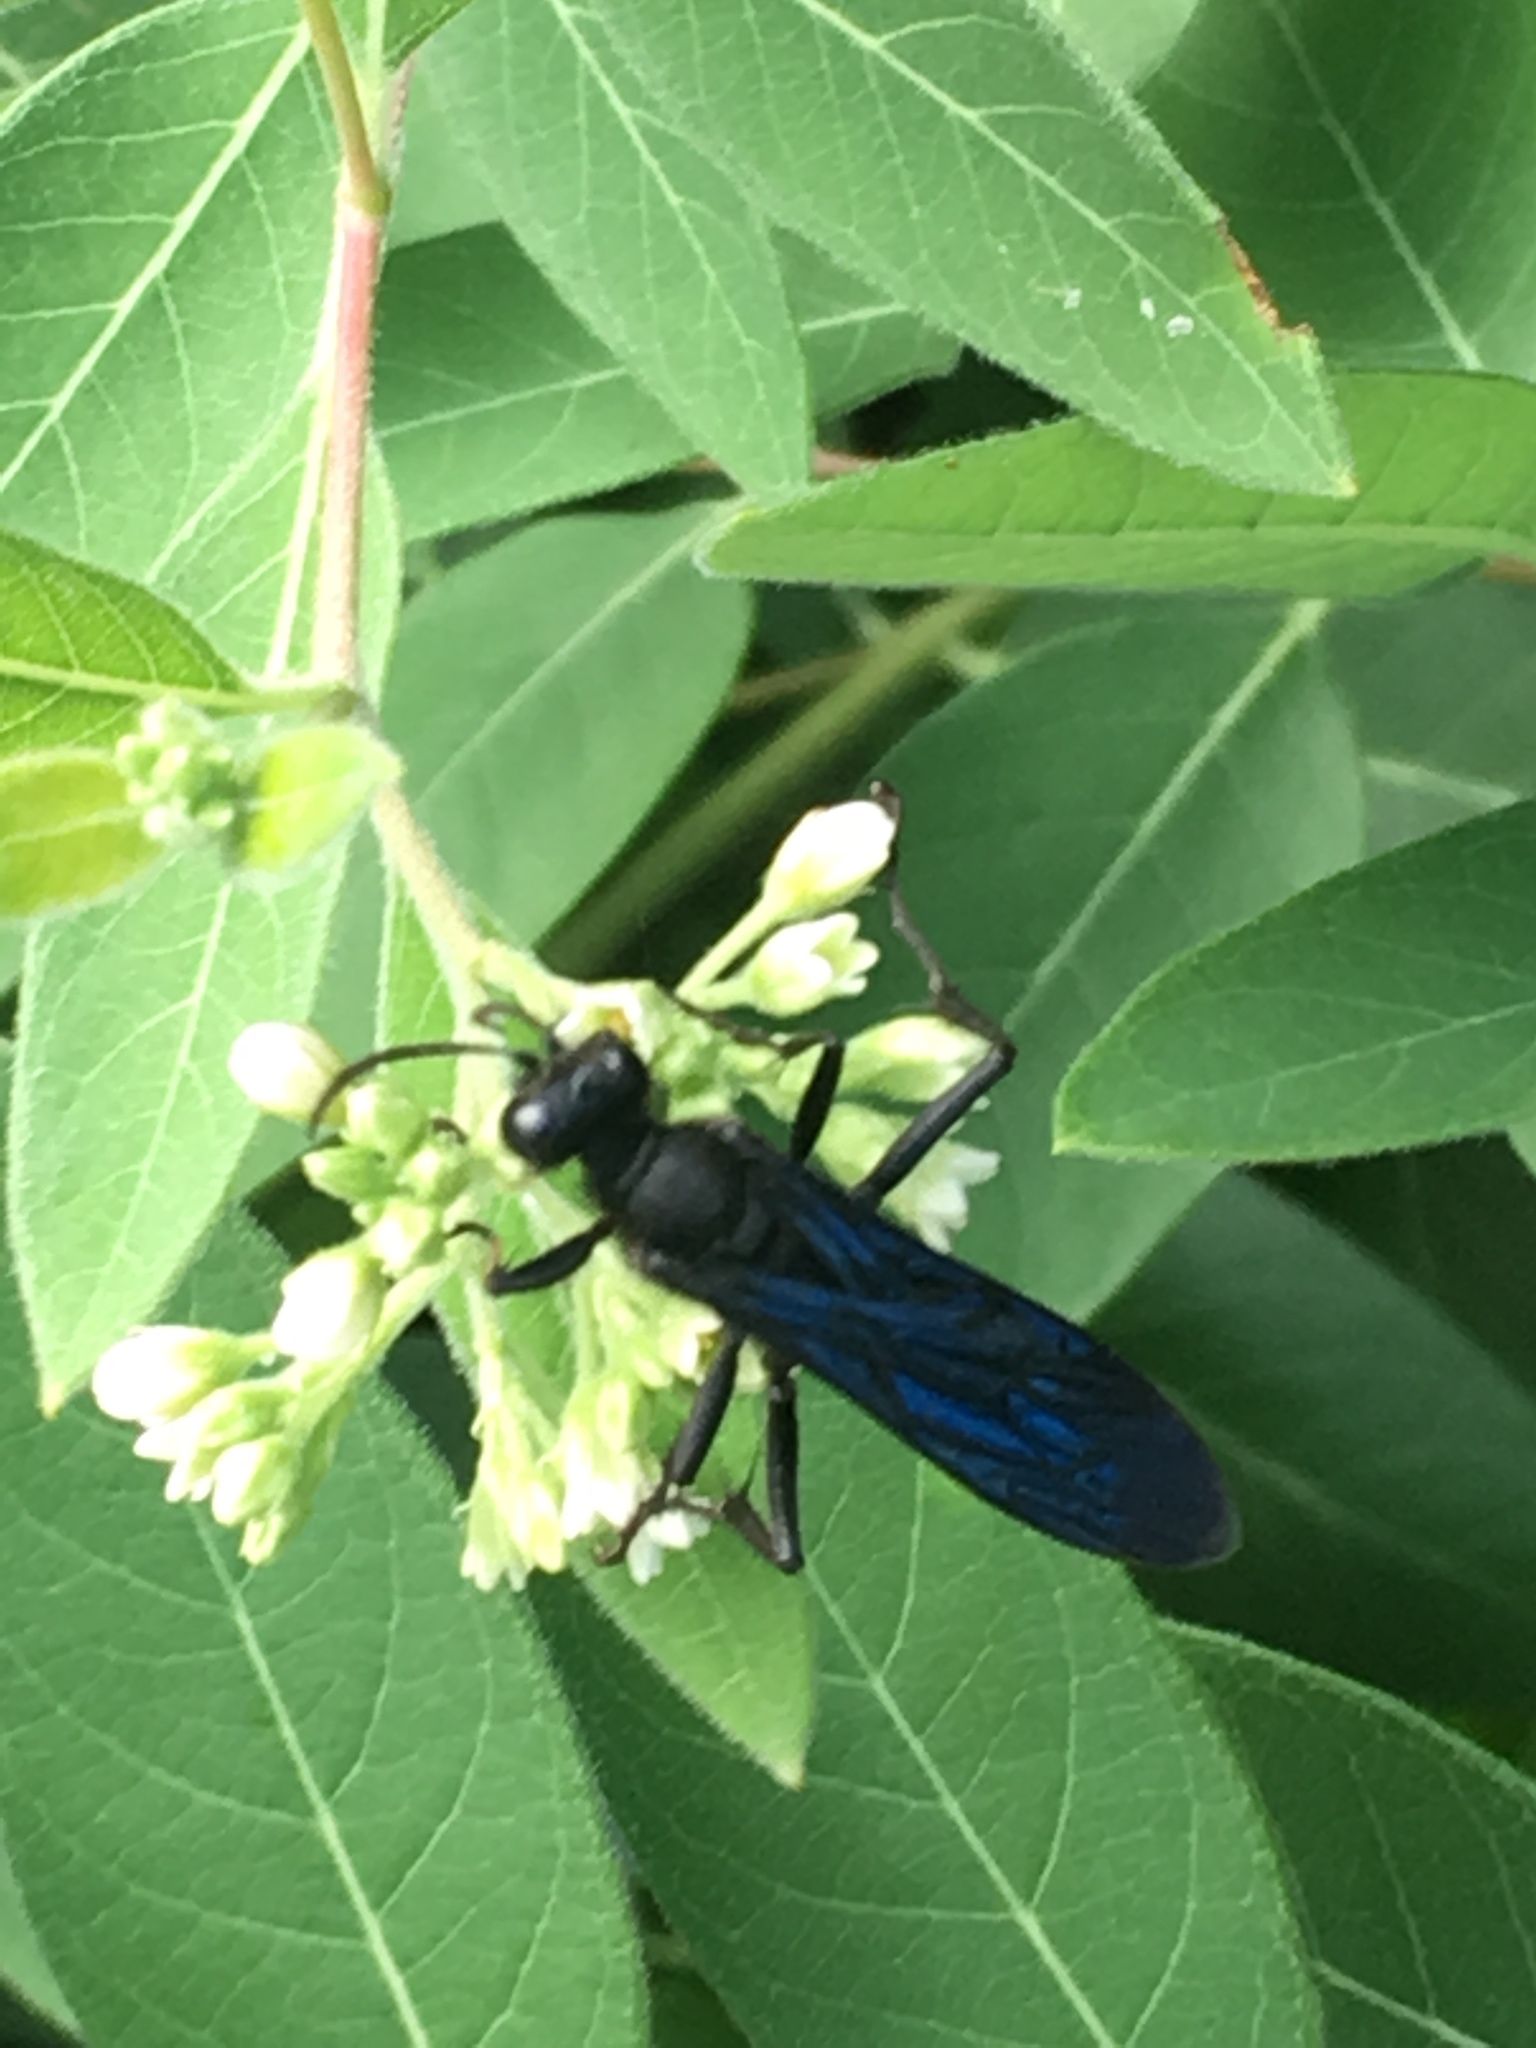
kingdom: Animalia
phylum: Arthropoda
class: Insecta
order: Hymenoptera
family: Sphecidae
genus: Sphex
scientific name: Sphex pensylvanicus
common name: Great black digger wasp
